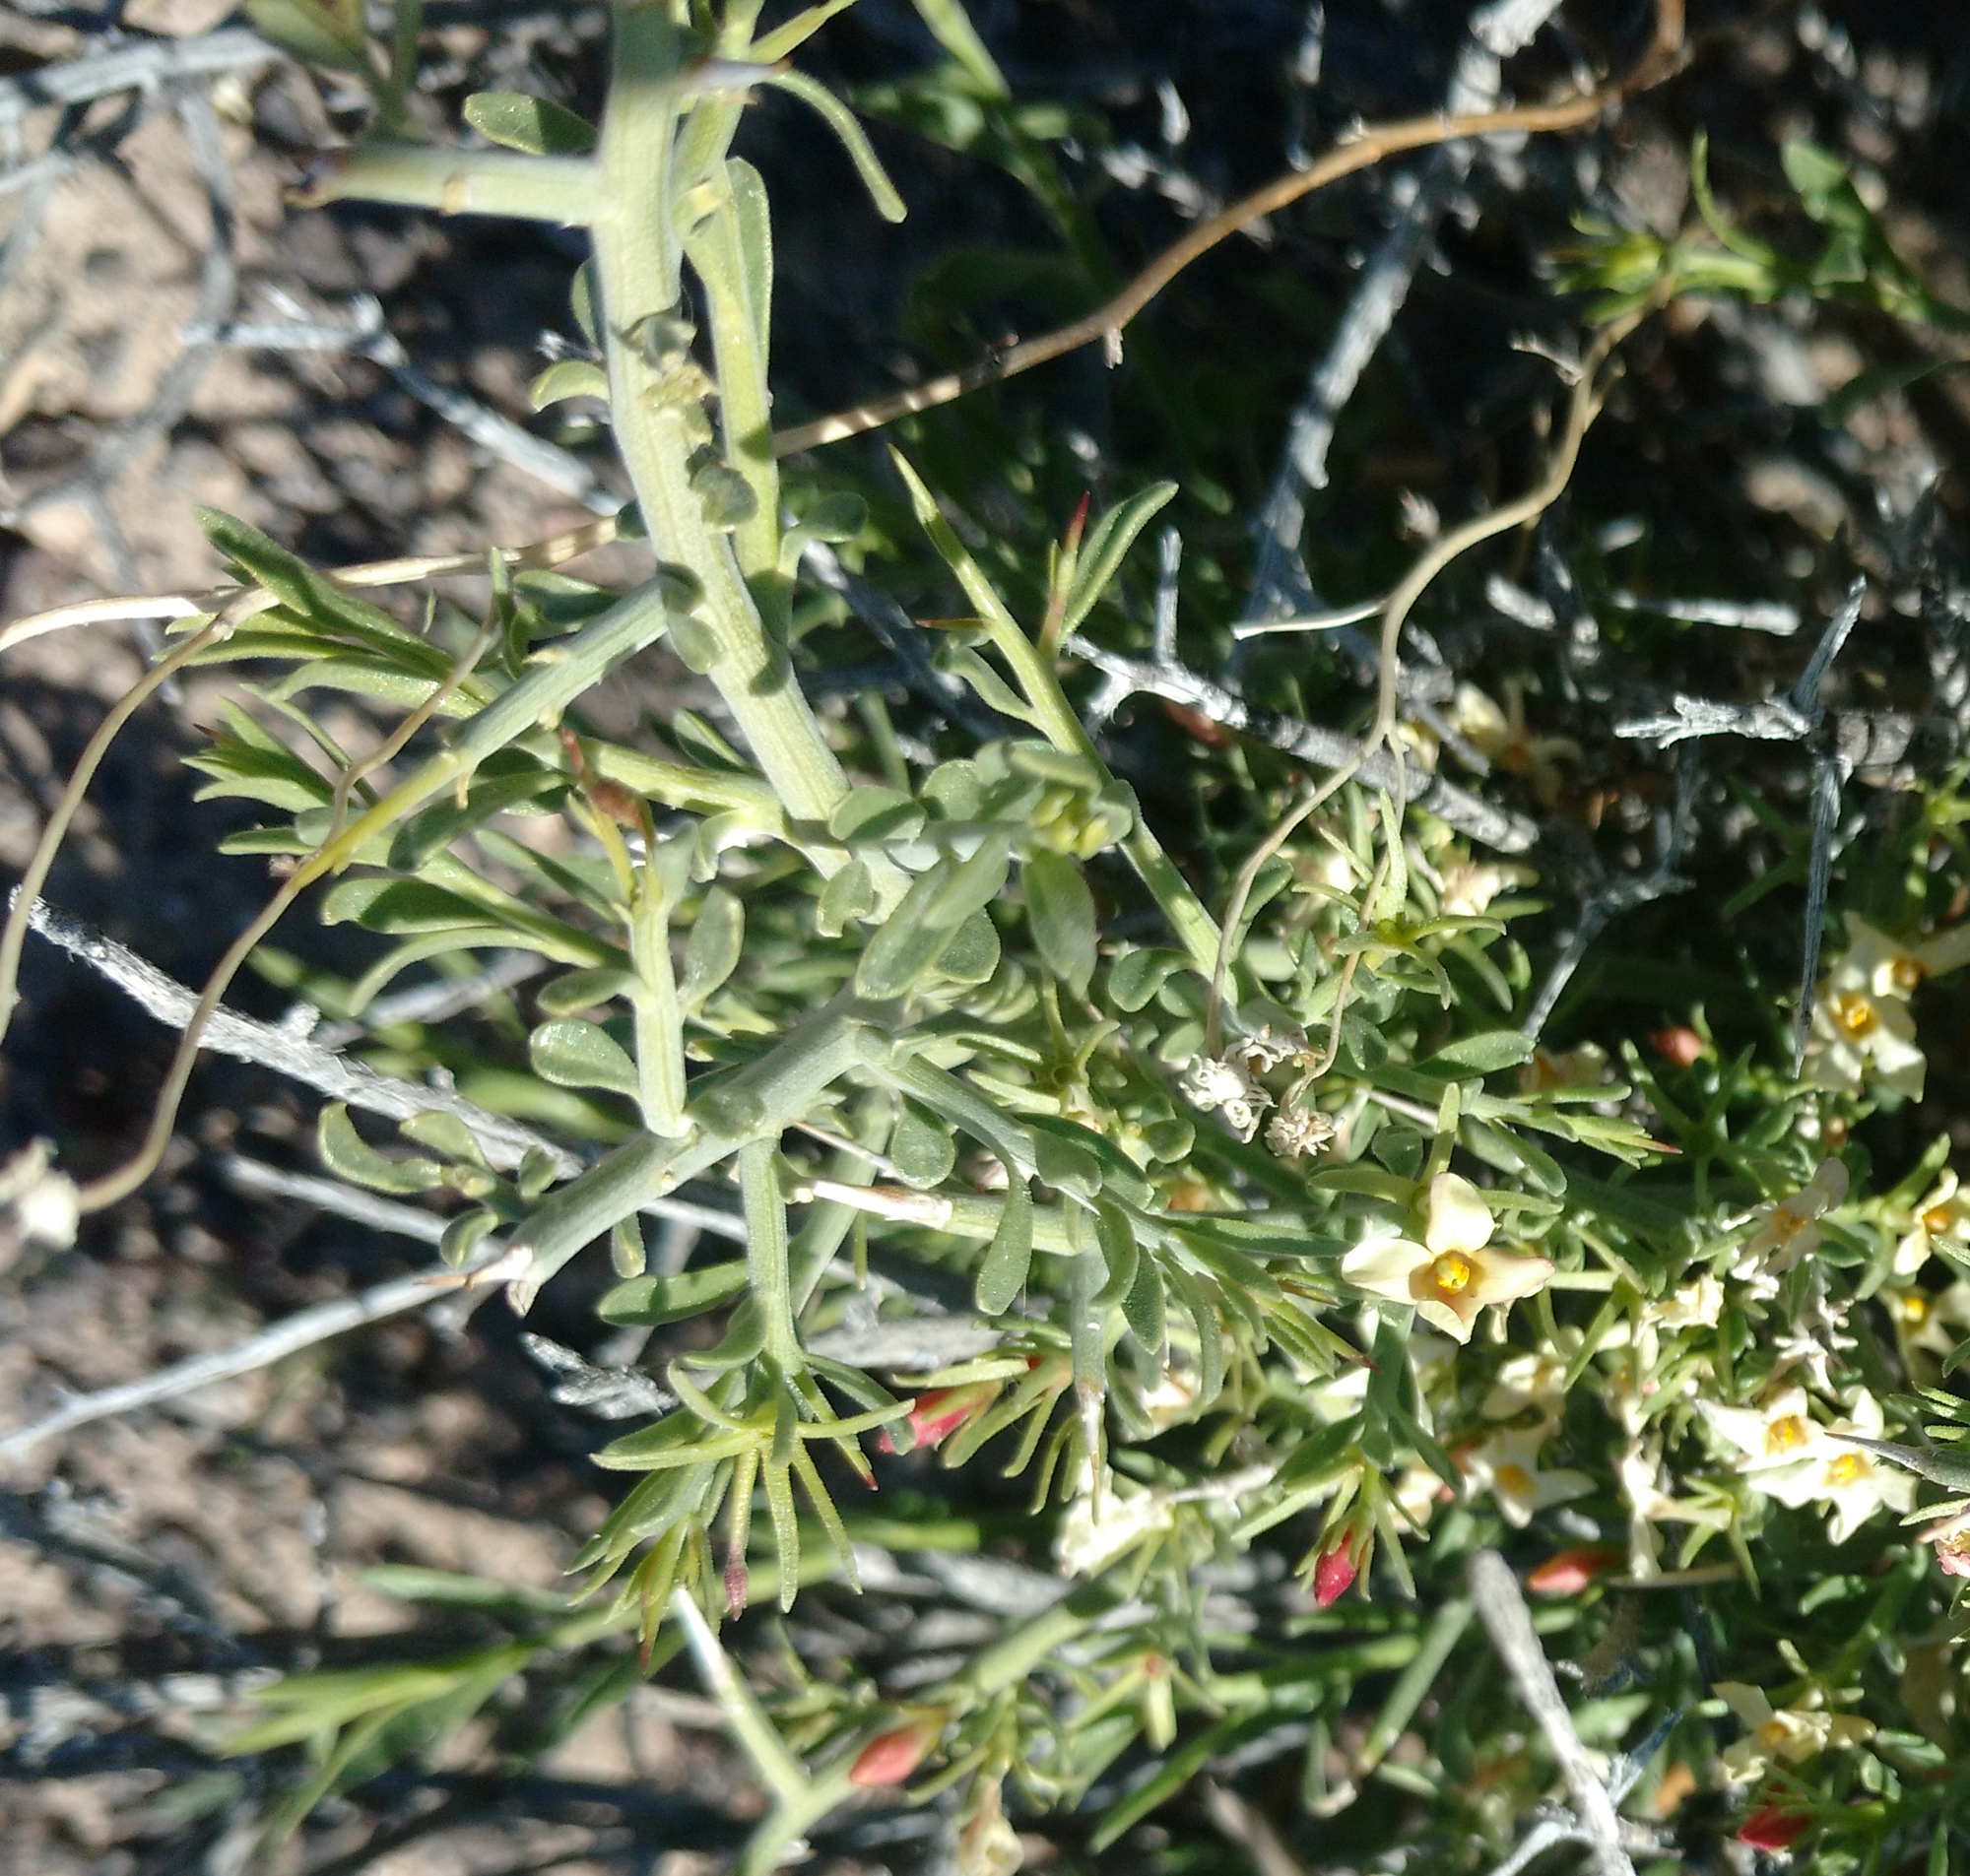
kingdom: Plantae
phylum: Tracheophyta
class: Magnoliopsida
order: Lamiales
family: Oleaceae
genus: Menodora
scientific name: Menodora spinescens
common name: Spiny menodora
